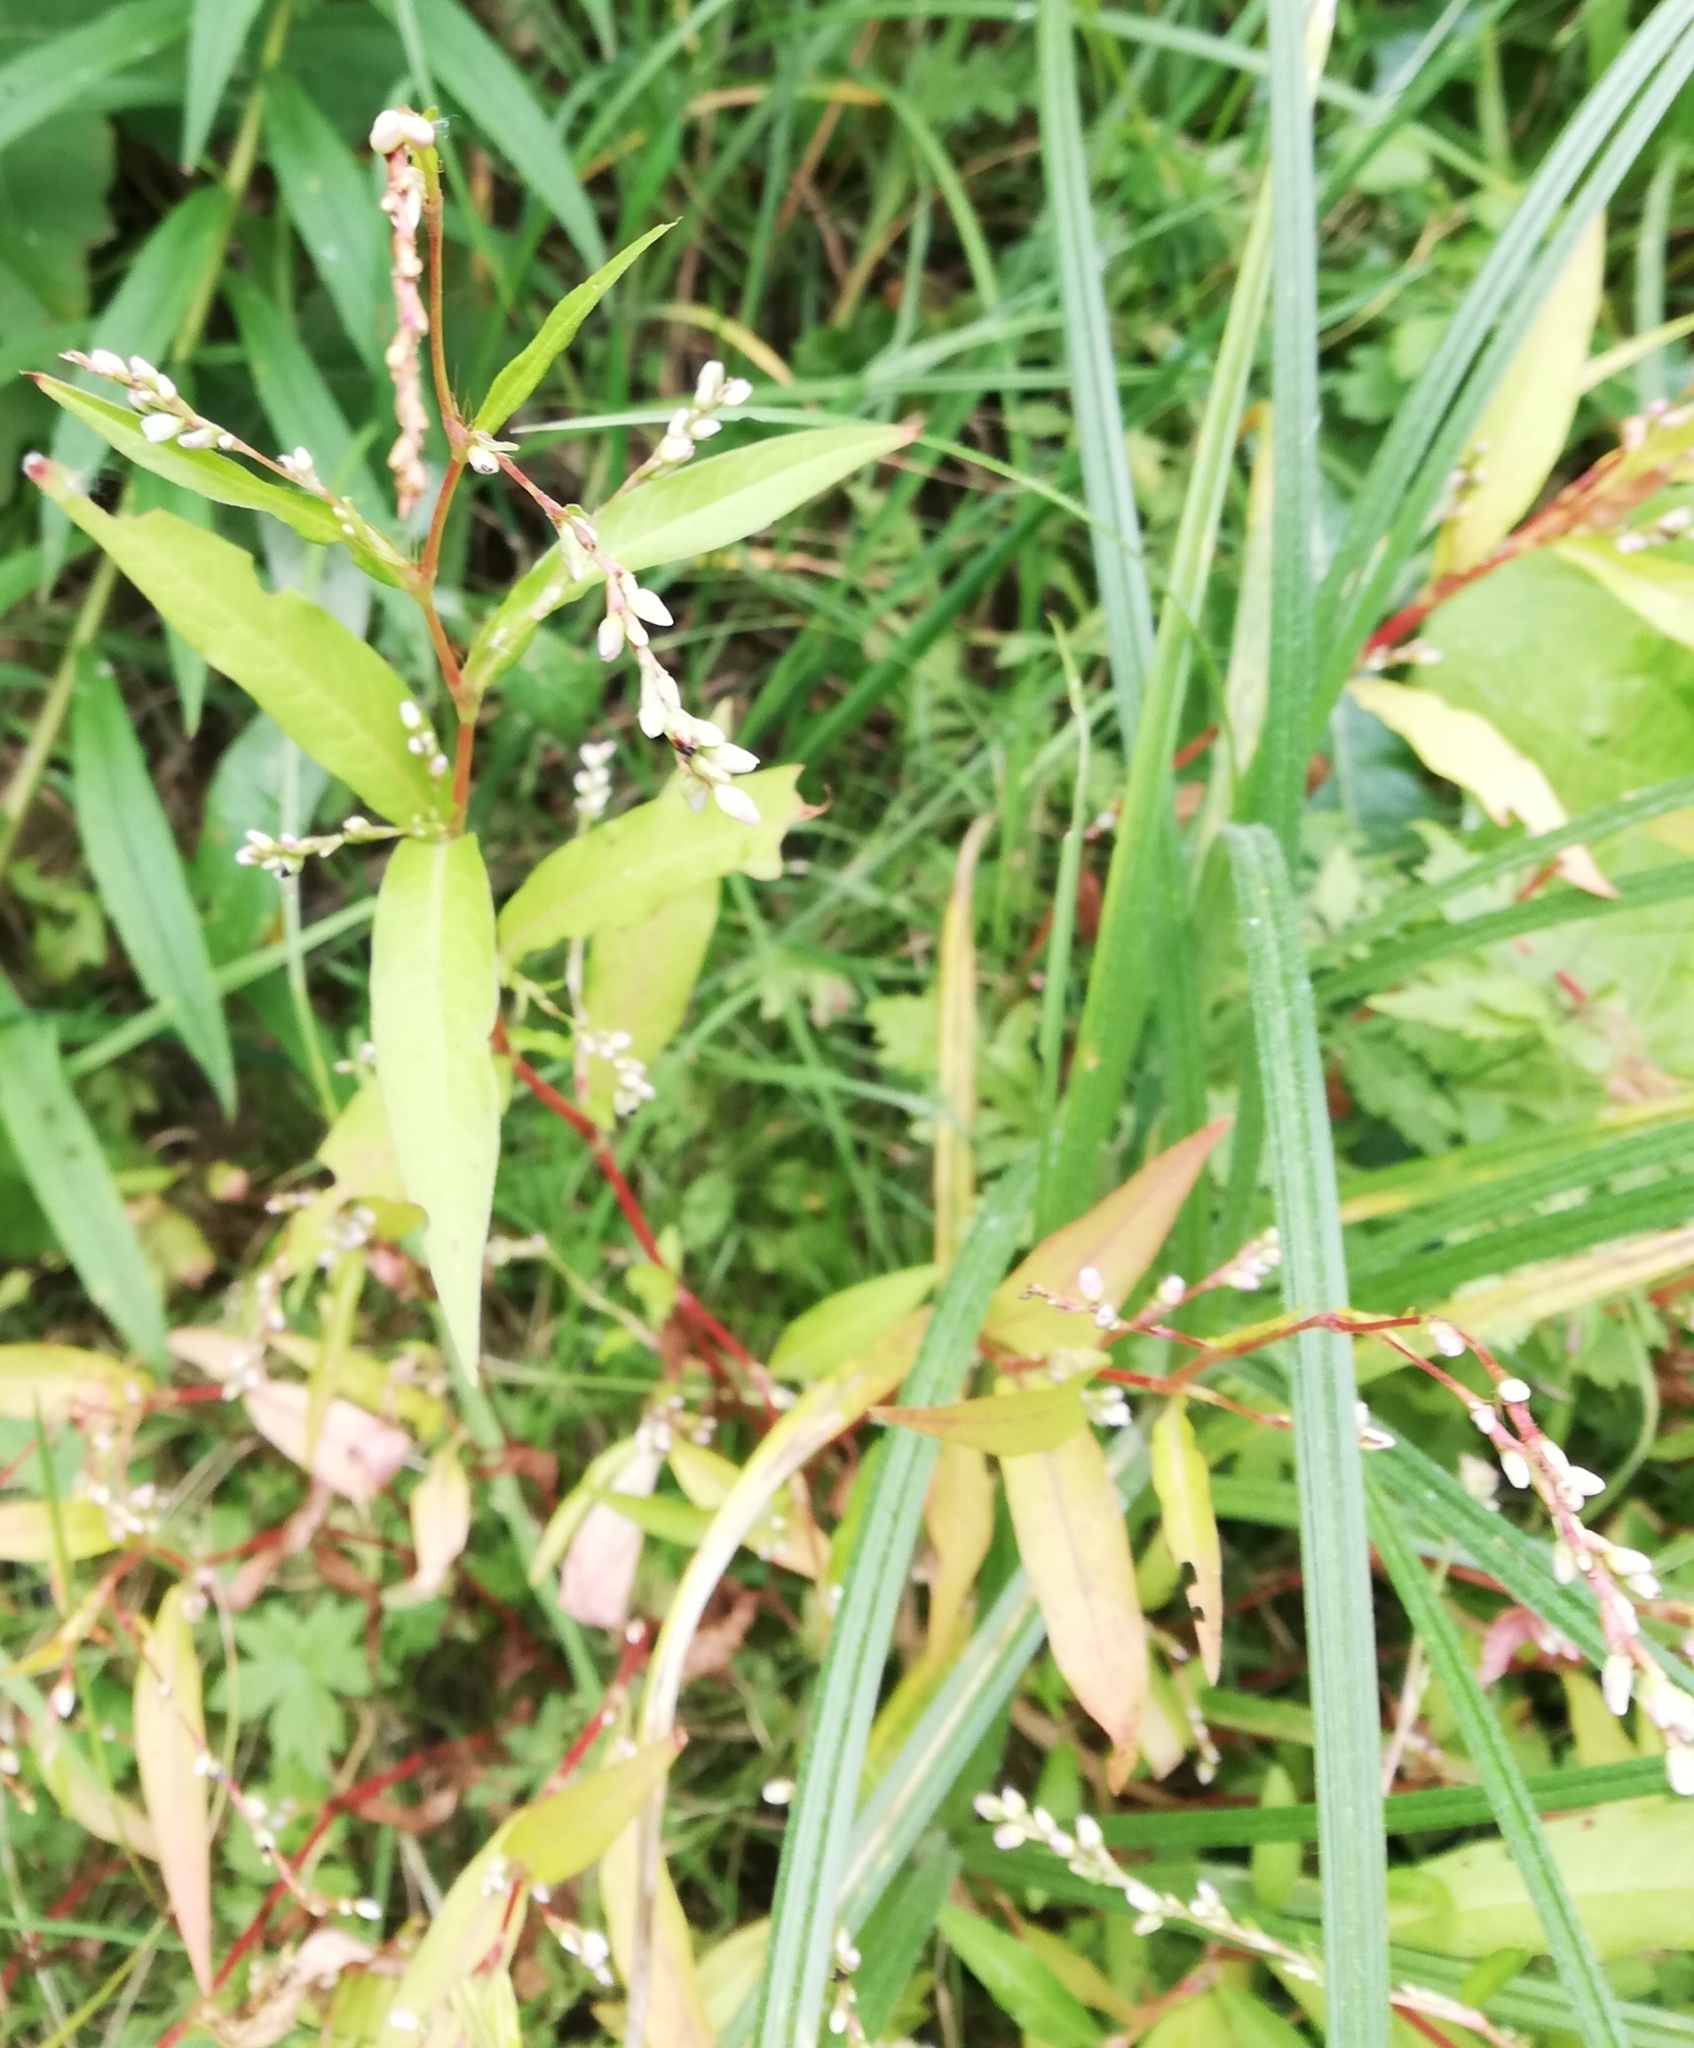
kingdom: Plantae
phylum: Tracheophyta
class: Magnoliopsida
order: Caryophyllales
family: Polygonaceae
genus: Persicaria
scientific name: Persicaria hydropiper
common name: Water-pepper
